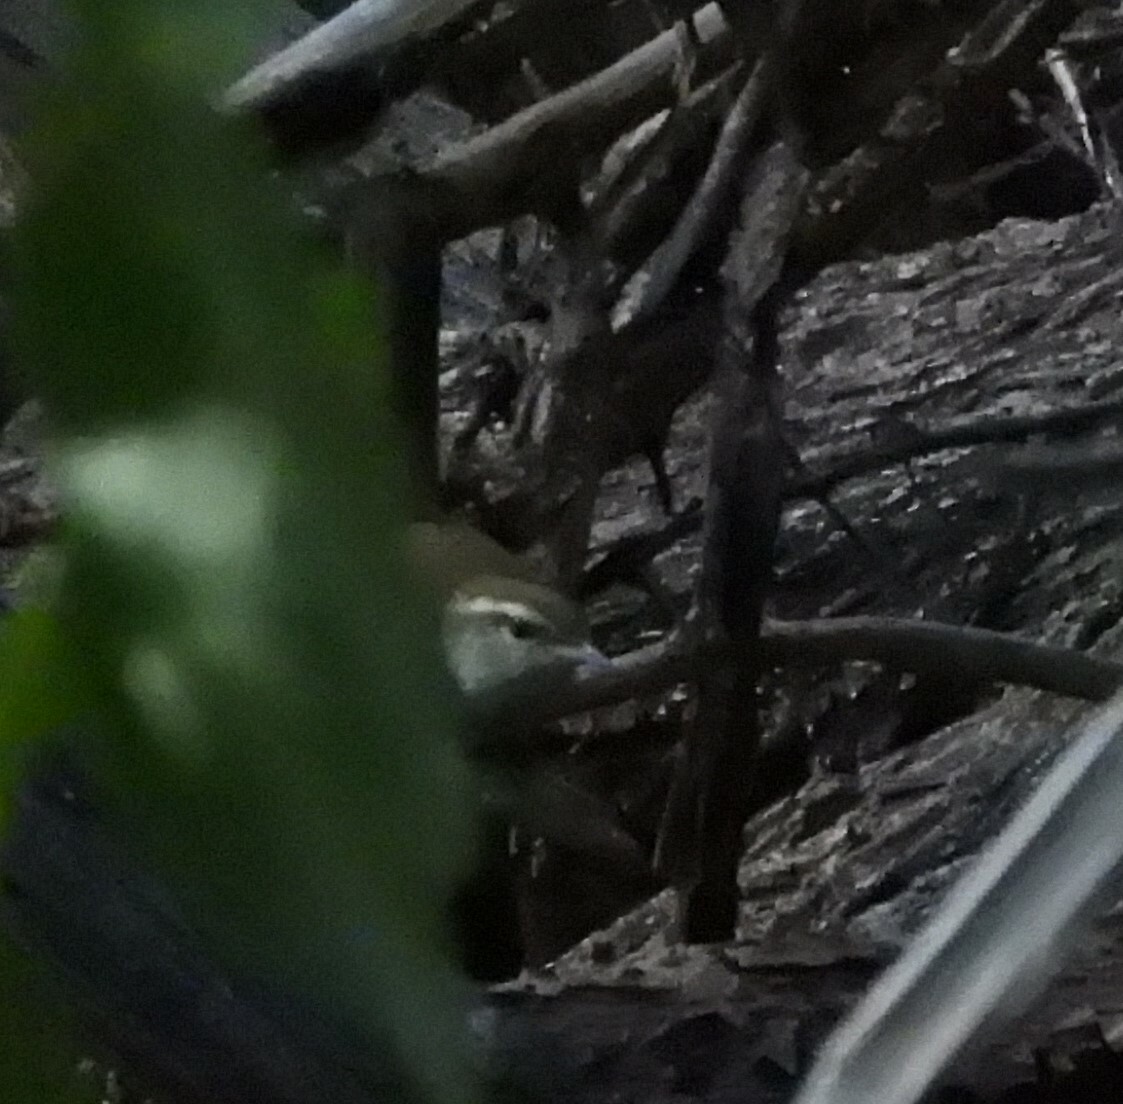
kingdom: Animalia
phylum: Chordata
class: Aves
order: Passeriformes
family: Troglodytidae
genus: Thryomanes
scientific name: Thryomanes bewickii
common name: Bewick's wren
